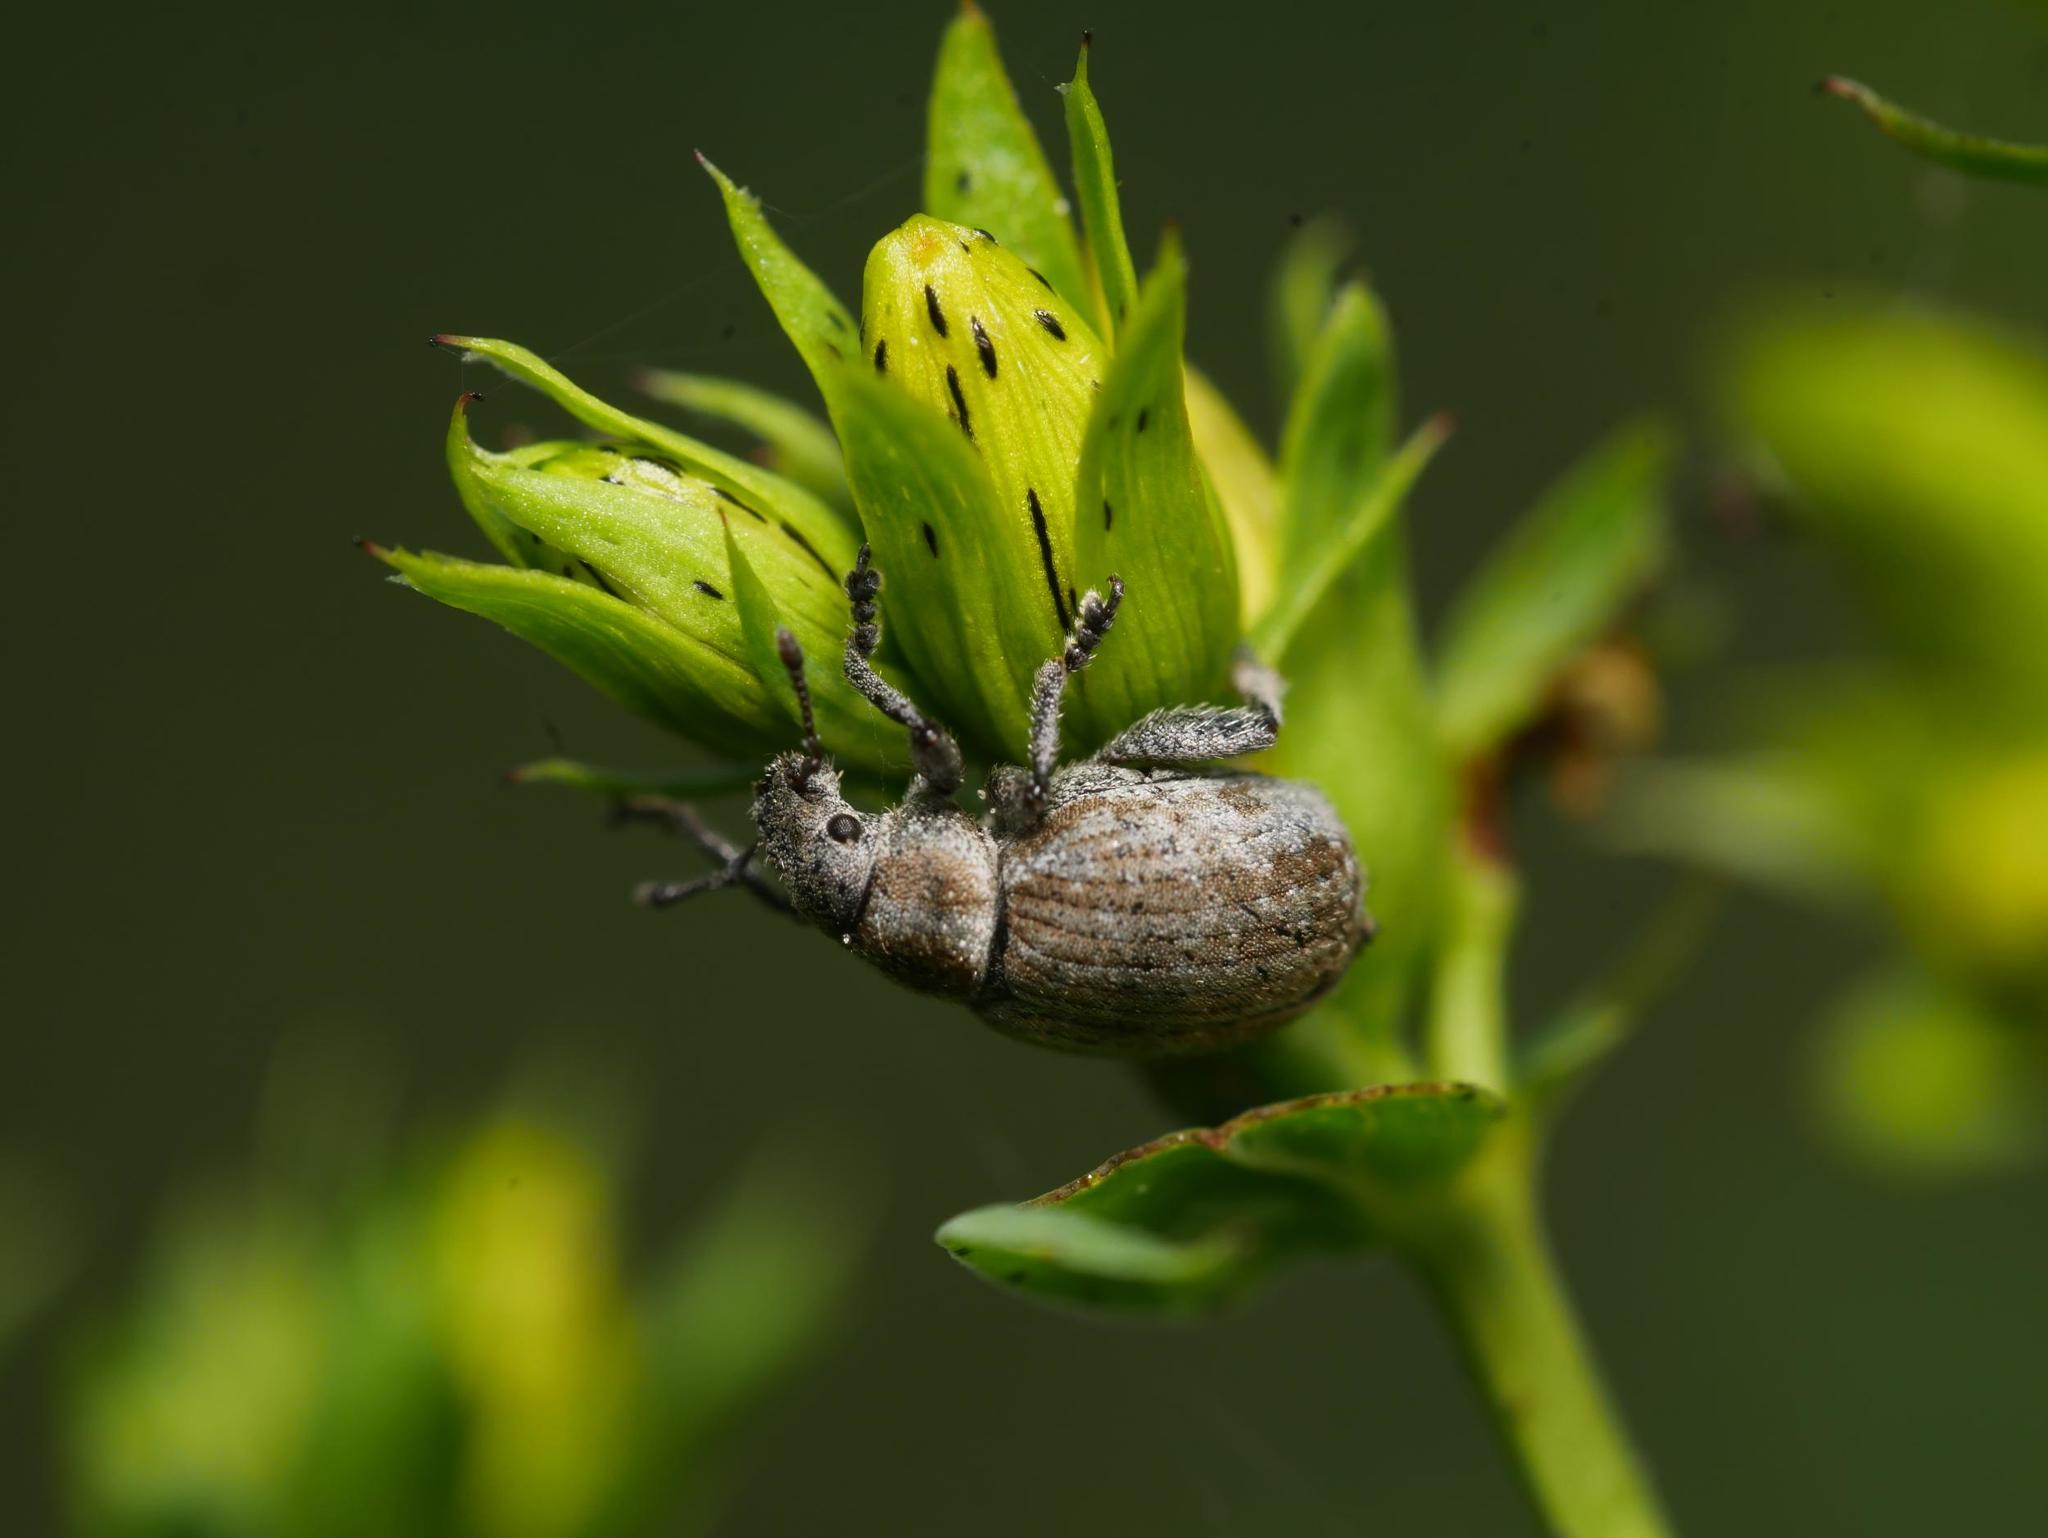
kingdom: Animalia
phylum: Arthropoda
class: Insecta
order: Coleoptera
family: Curculionidae
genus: Philopedon
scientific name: Philopedon plagiatum
